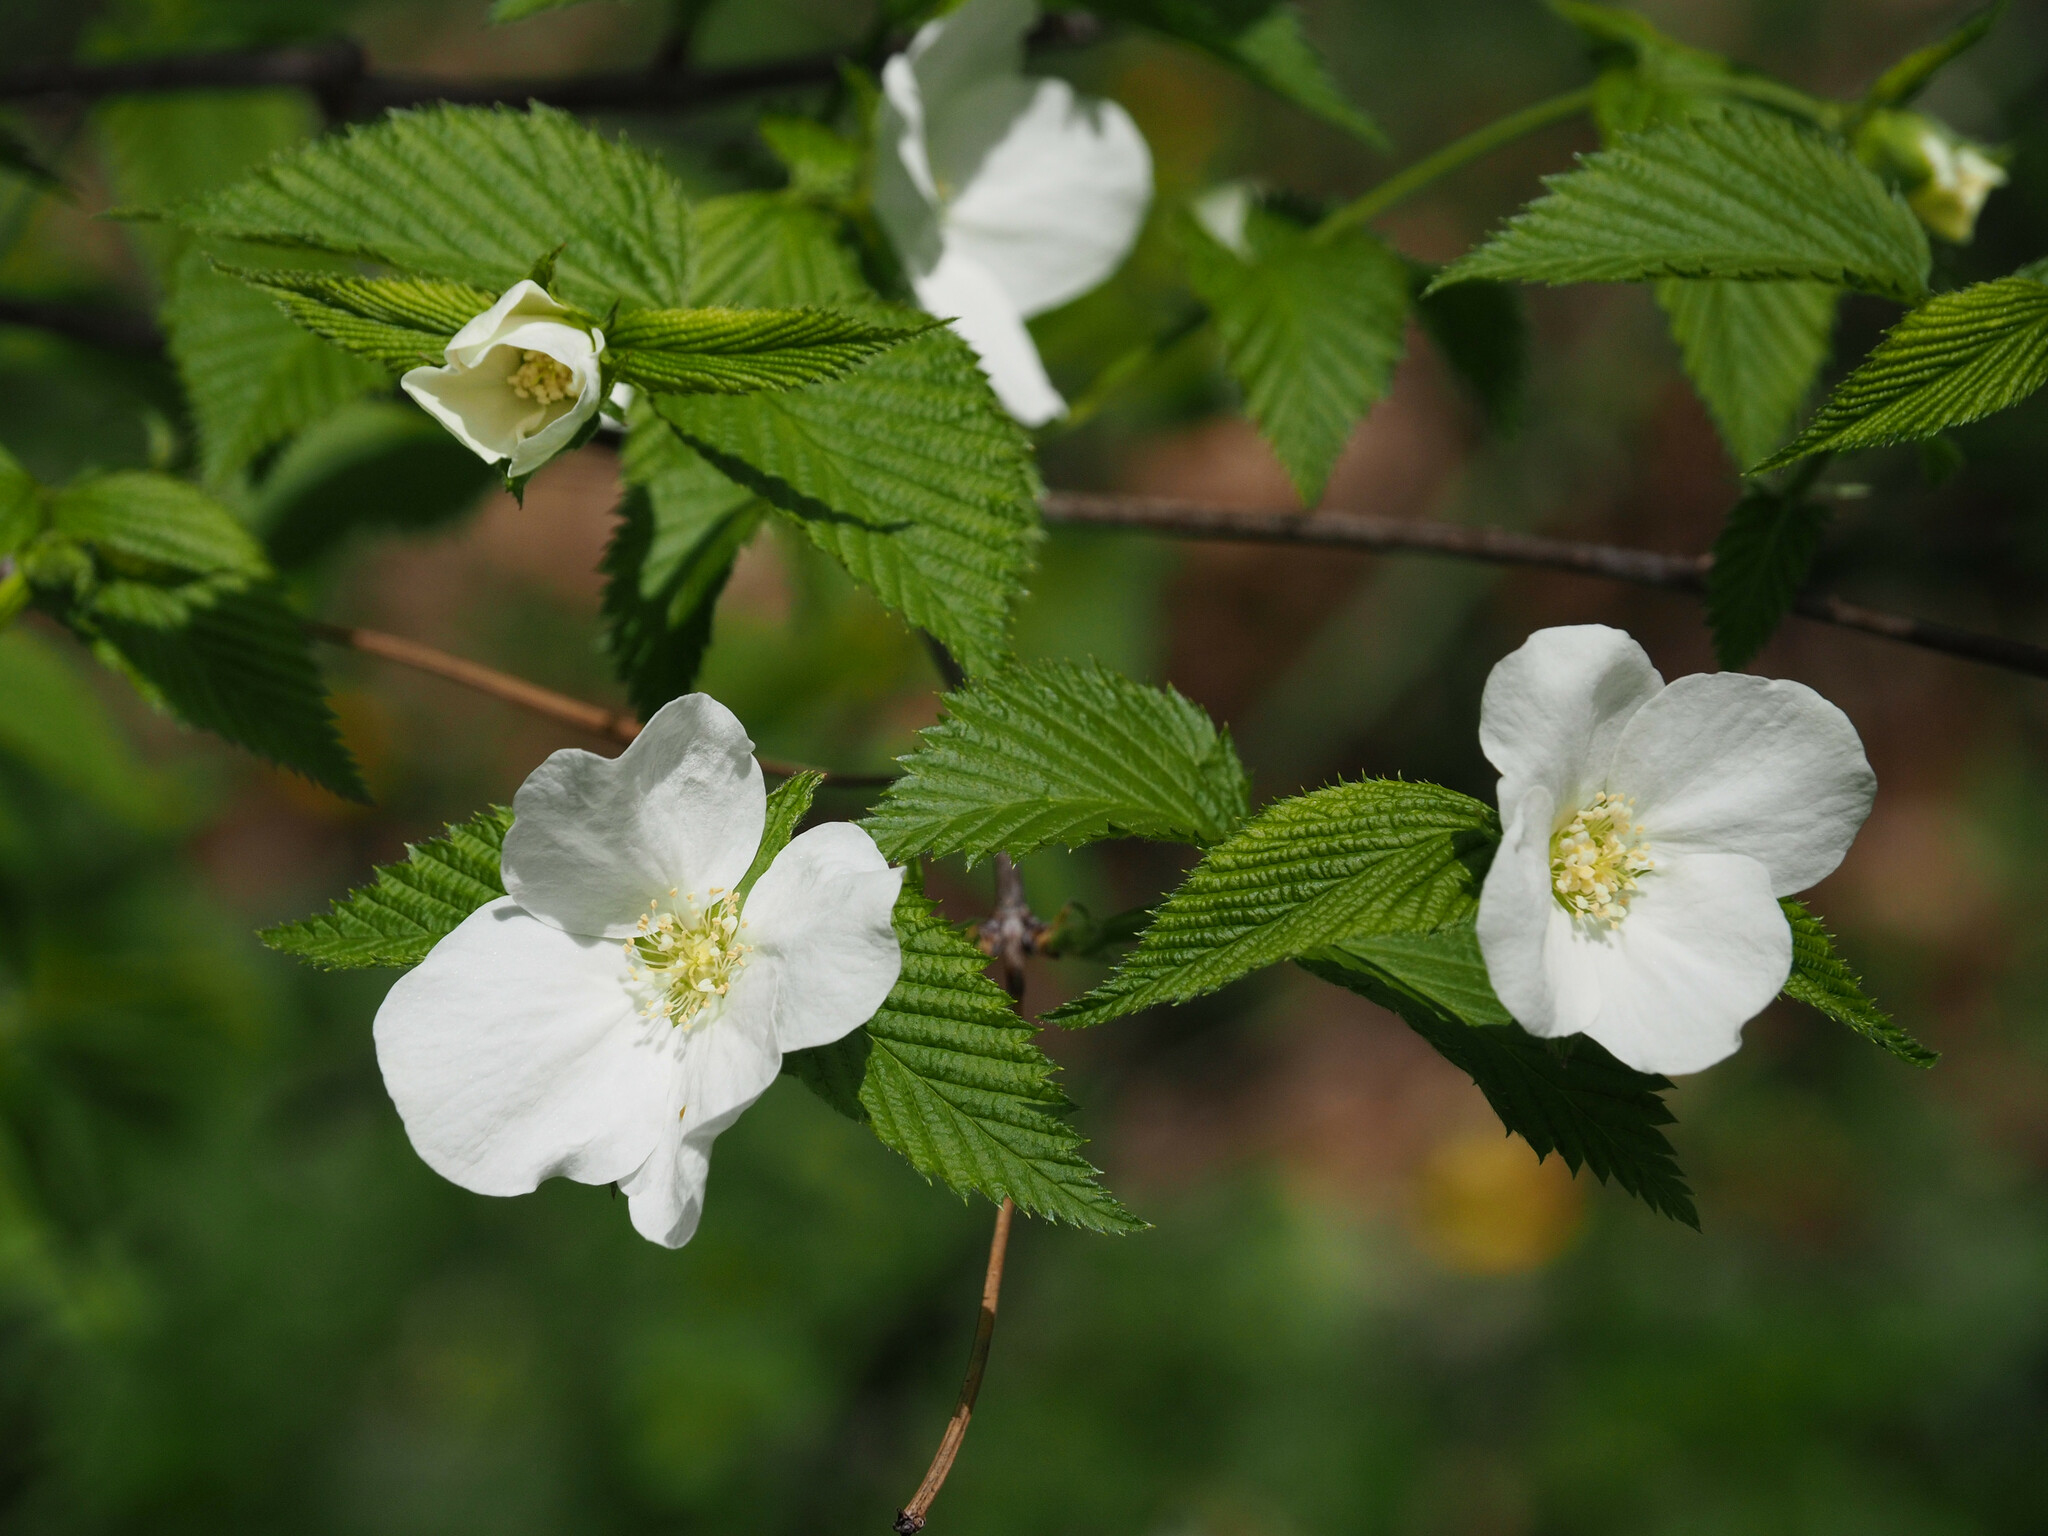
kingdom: Plantae
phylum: Tracheophyta
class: Magnoliopsida
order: Rosales
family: Rosaceae
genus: Rhodotypos
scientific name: Rhodotypos scandens
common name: Jetbead
